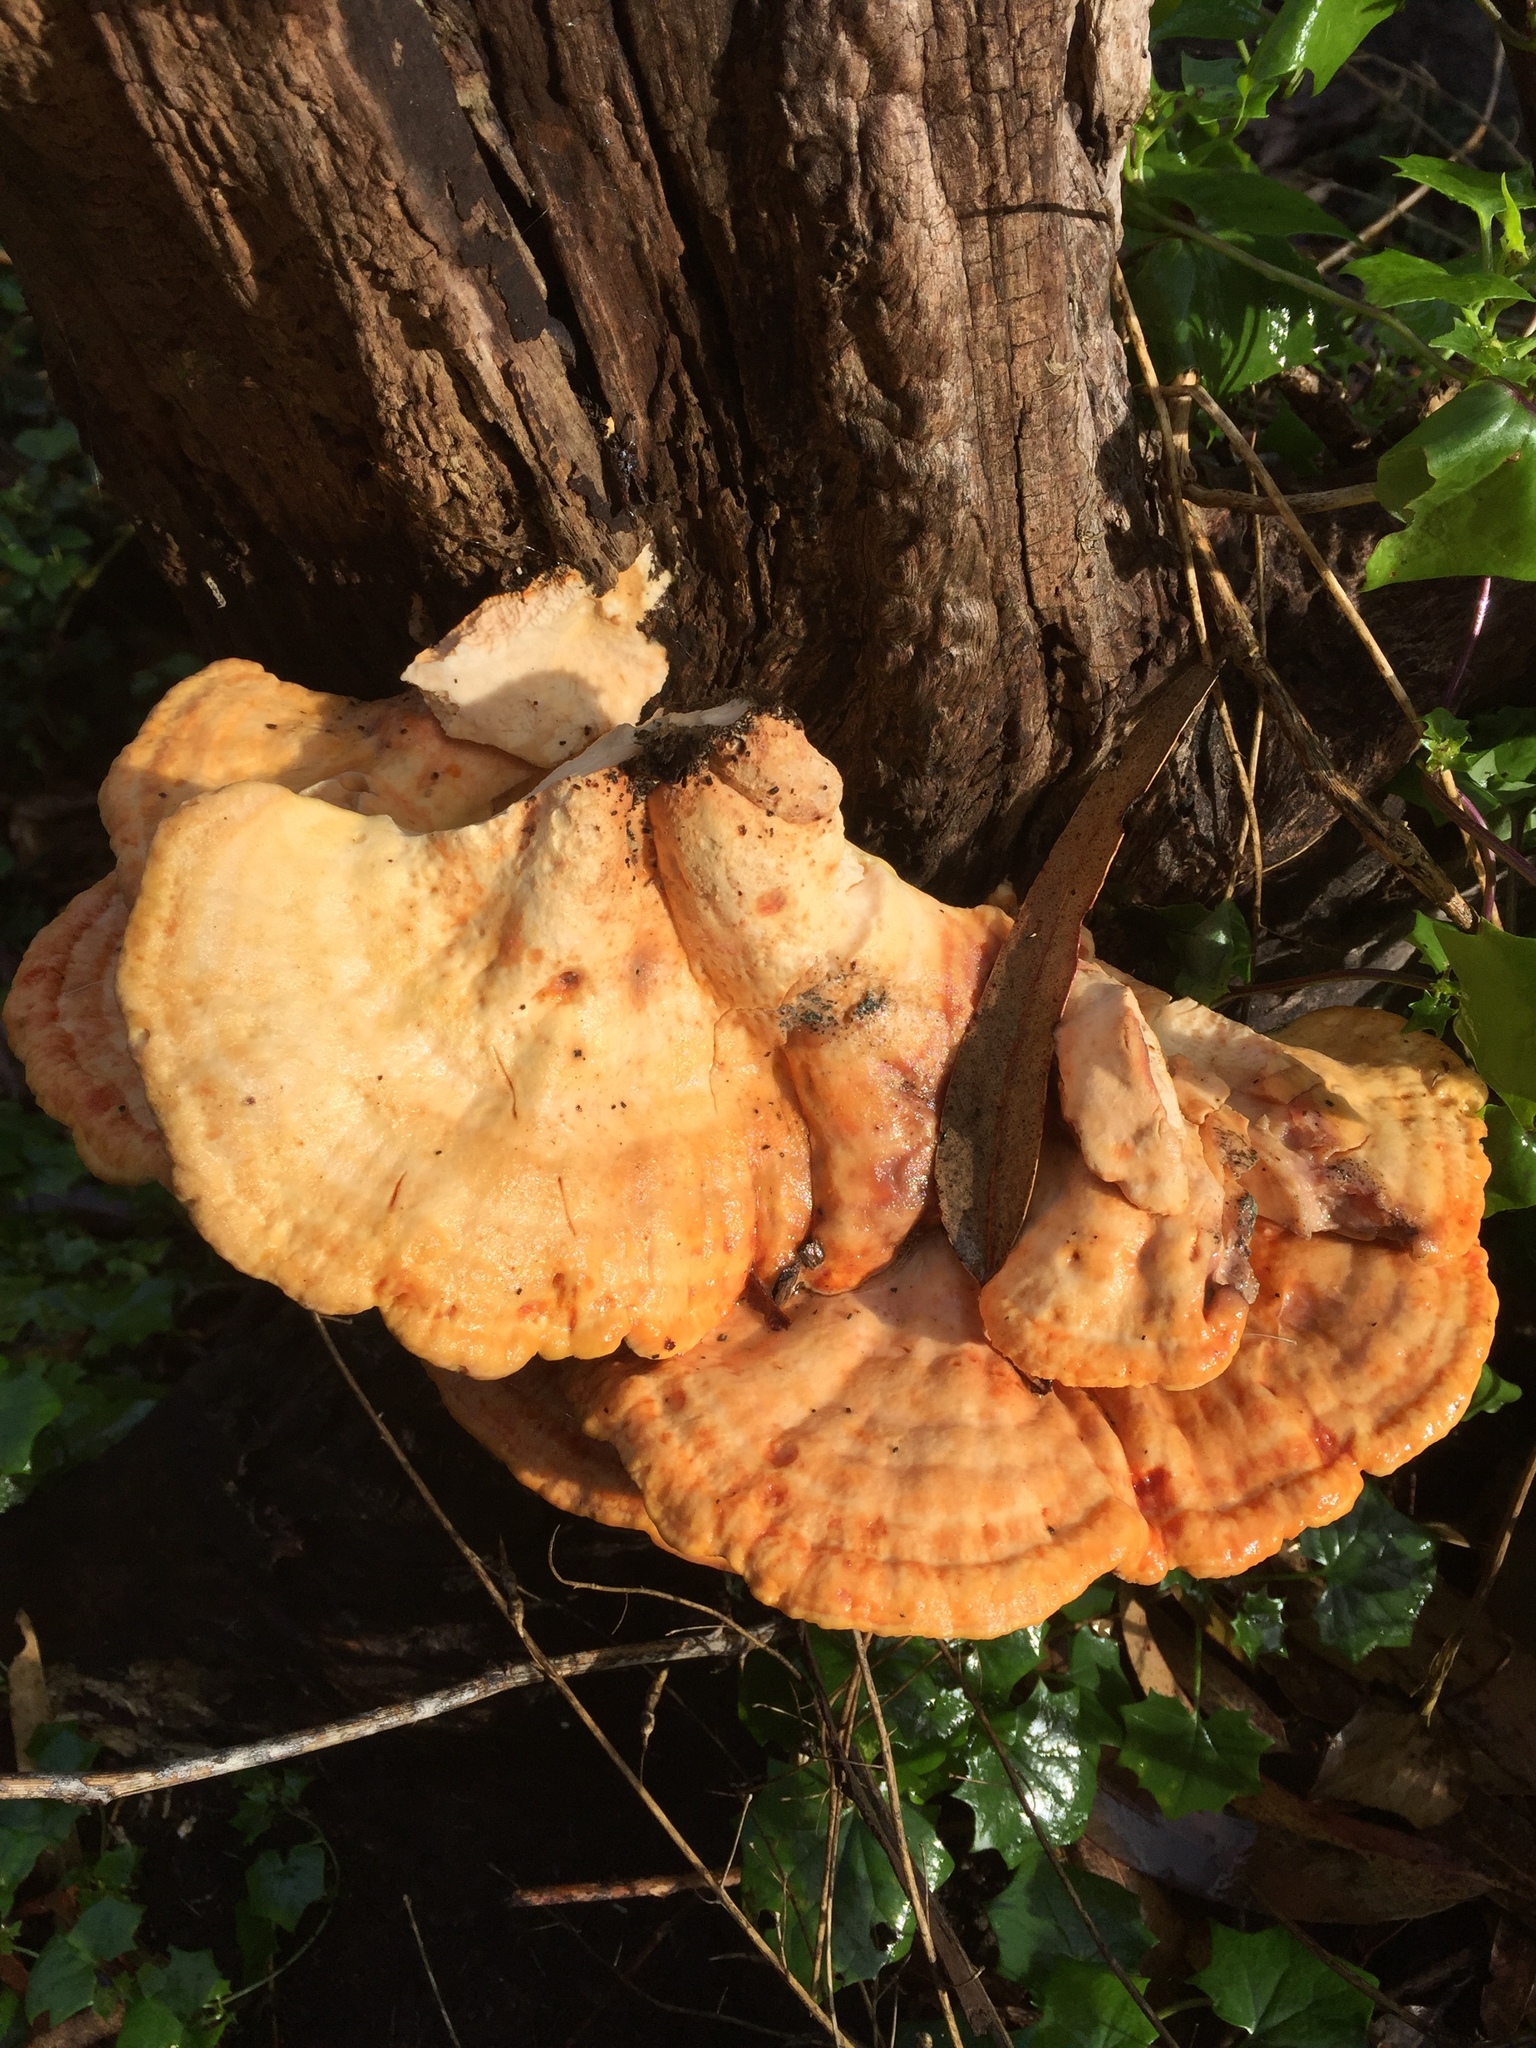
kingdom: Fungi
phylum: Basidiomycota
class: Agaricomycetes
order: Polyporales
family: Laetiporaceae
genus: Laetiporus
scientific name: Laetiporus gilbertsonii
